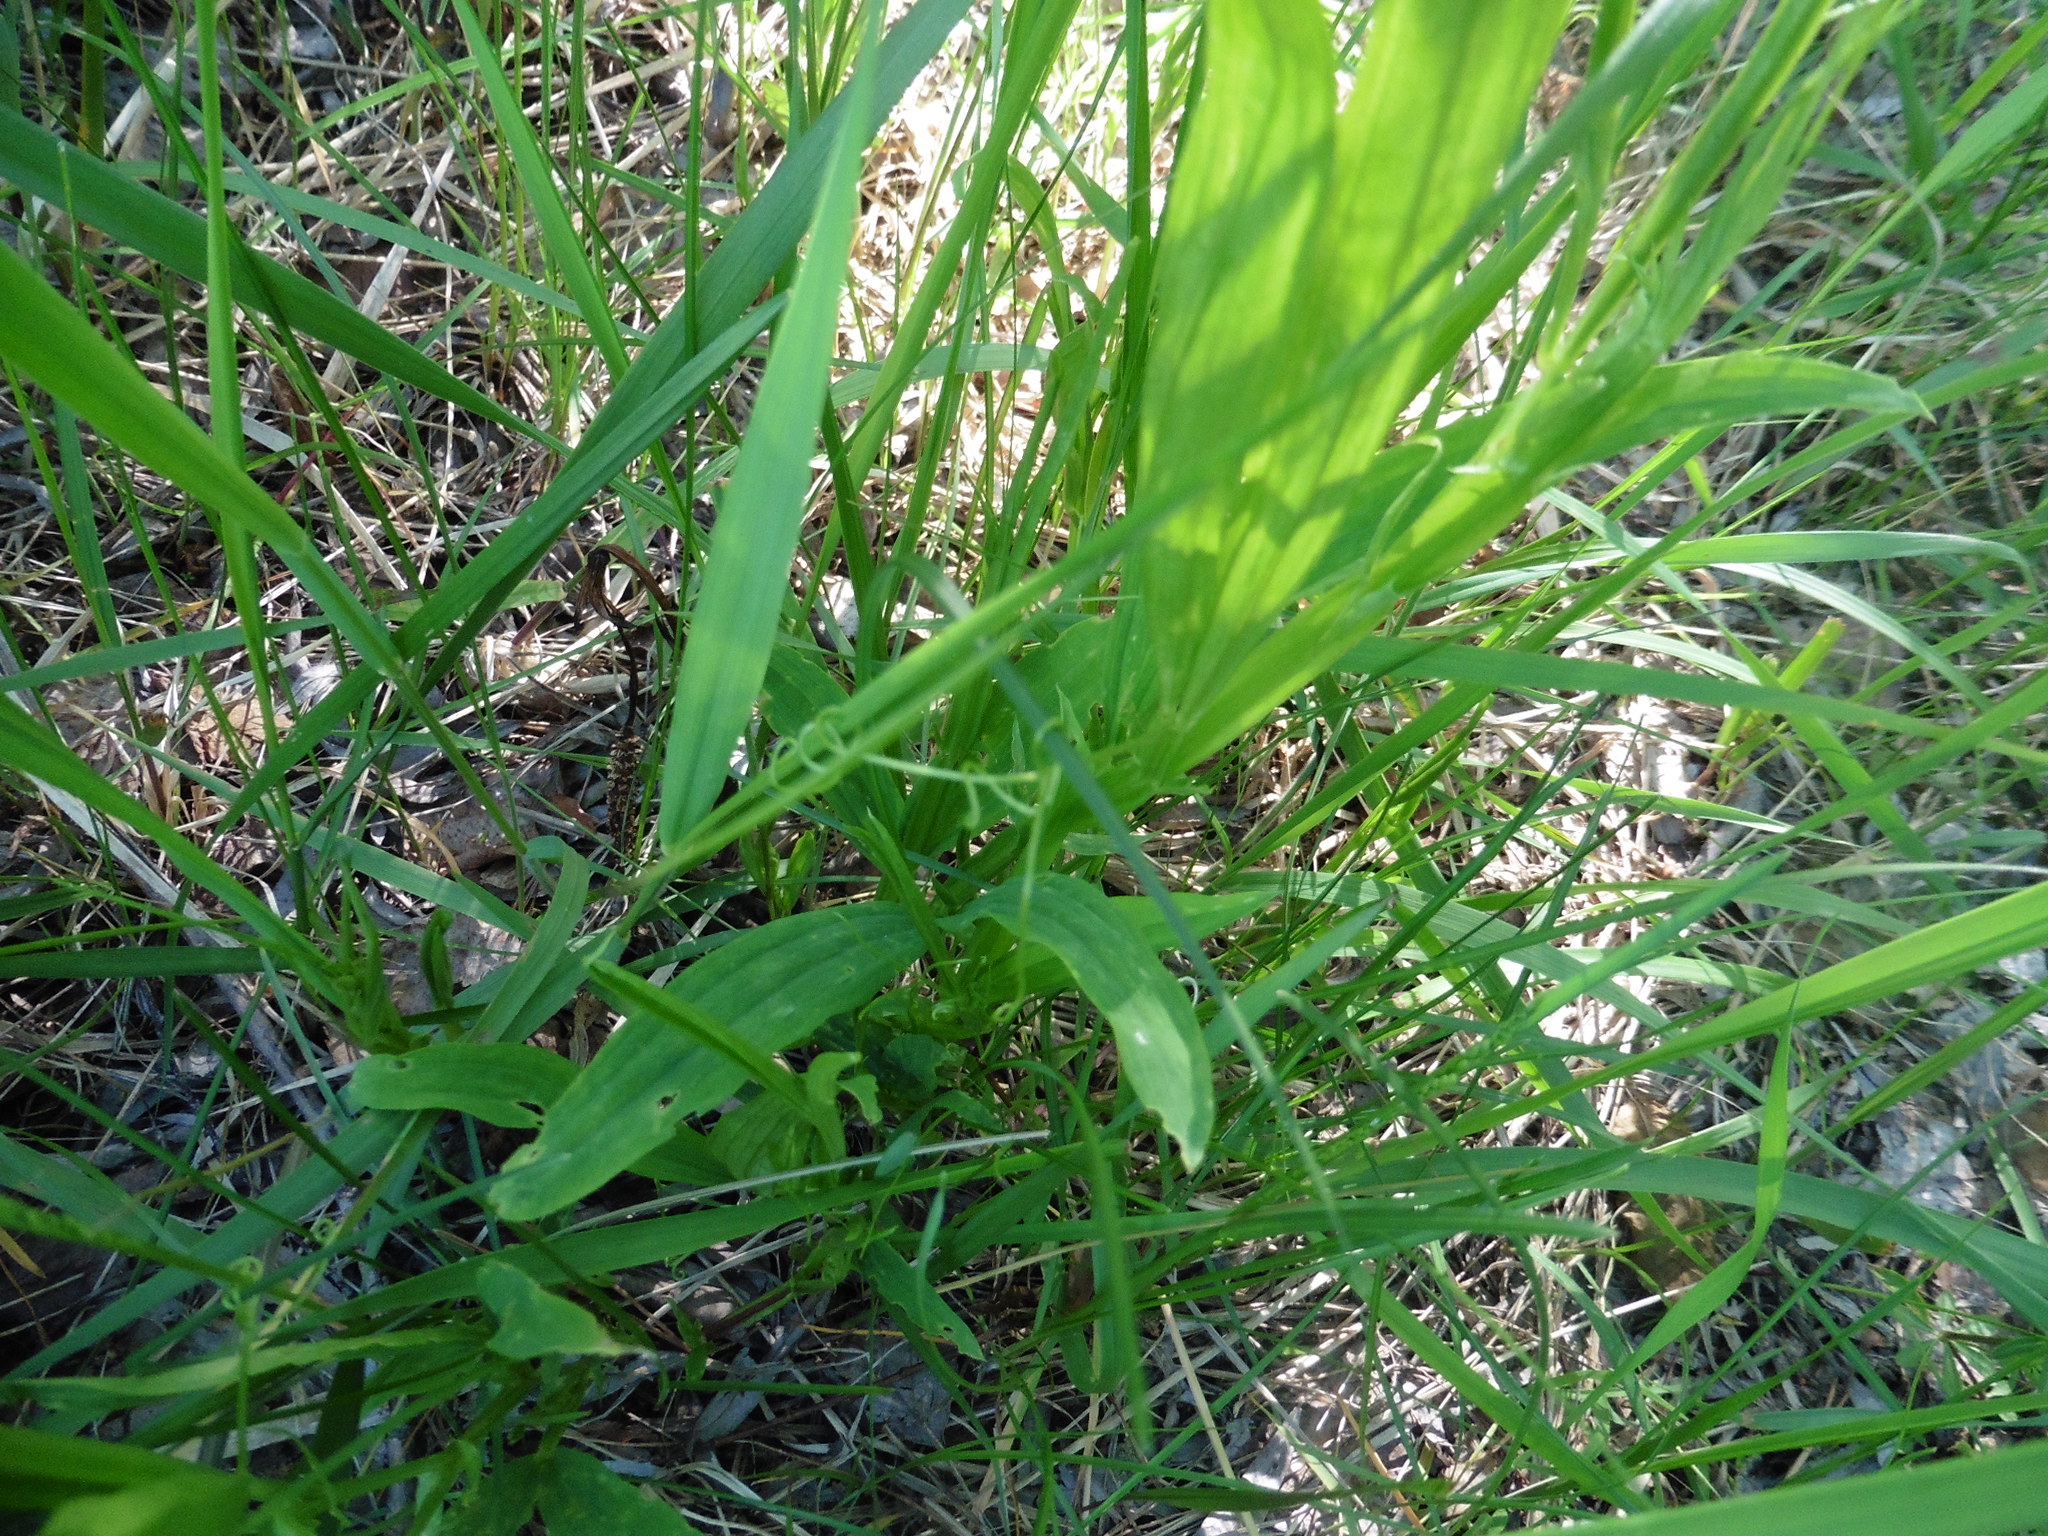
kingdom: Plantae
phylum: Tracheophyta
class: Magnoliopsida
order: Fabales
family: Fabaceae
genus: Lathyrus
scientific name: Lathyrus sylvestris
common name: Flat pea
